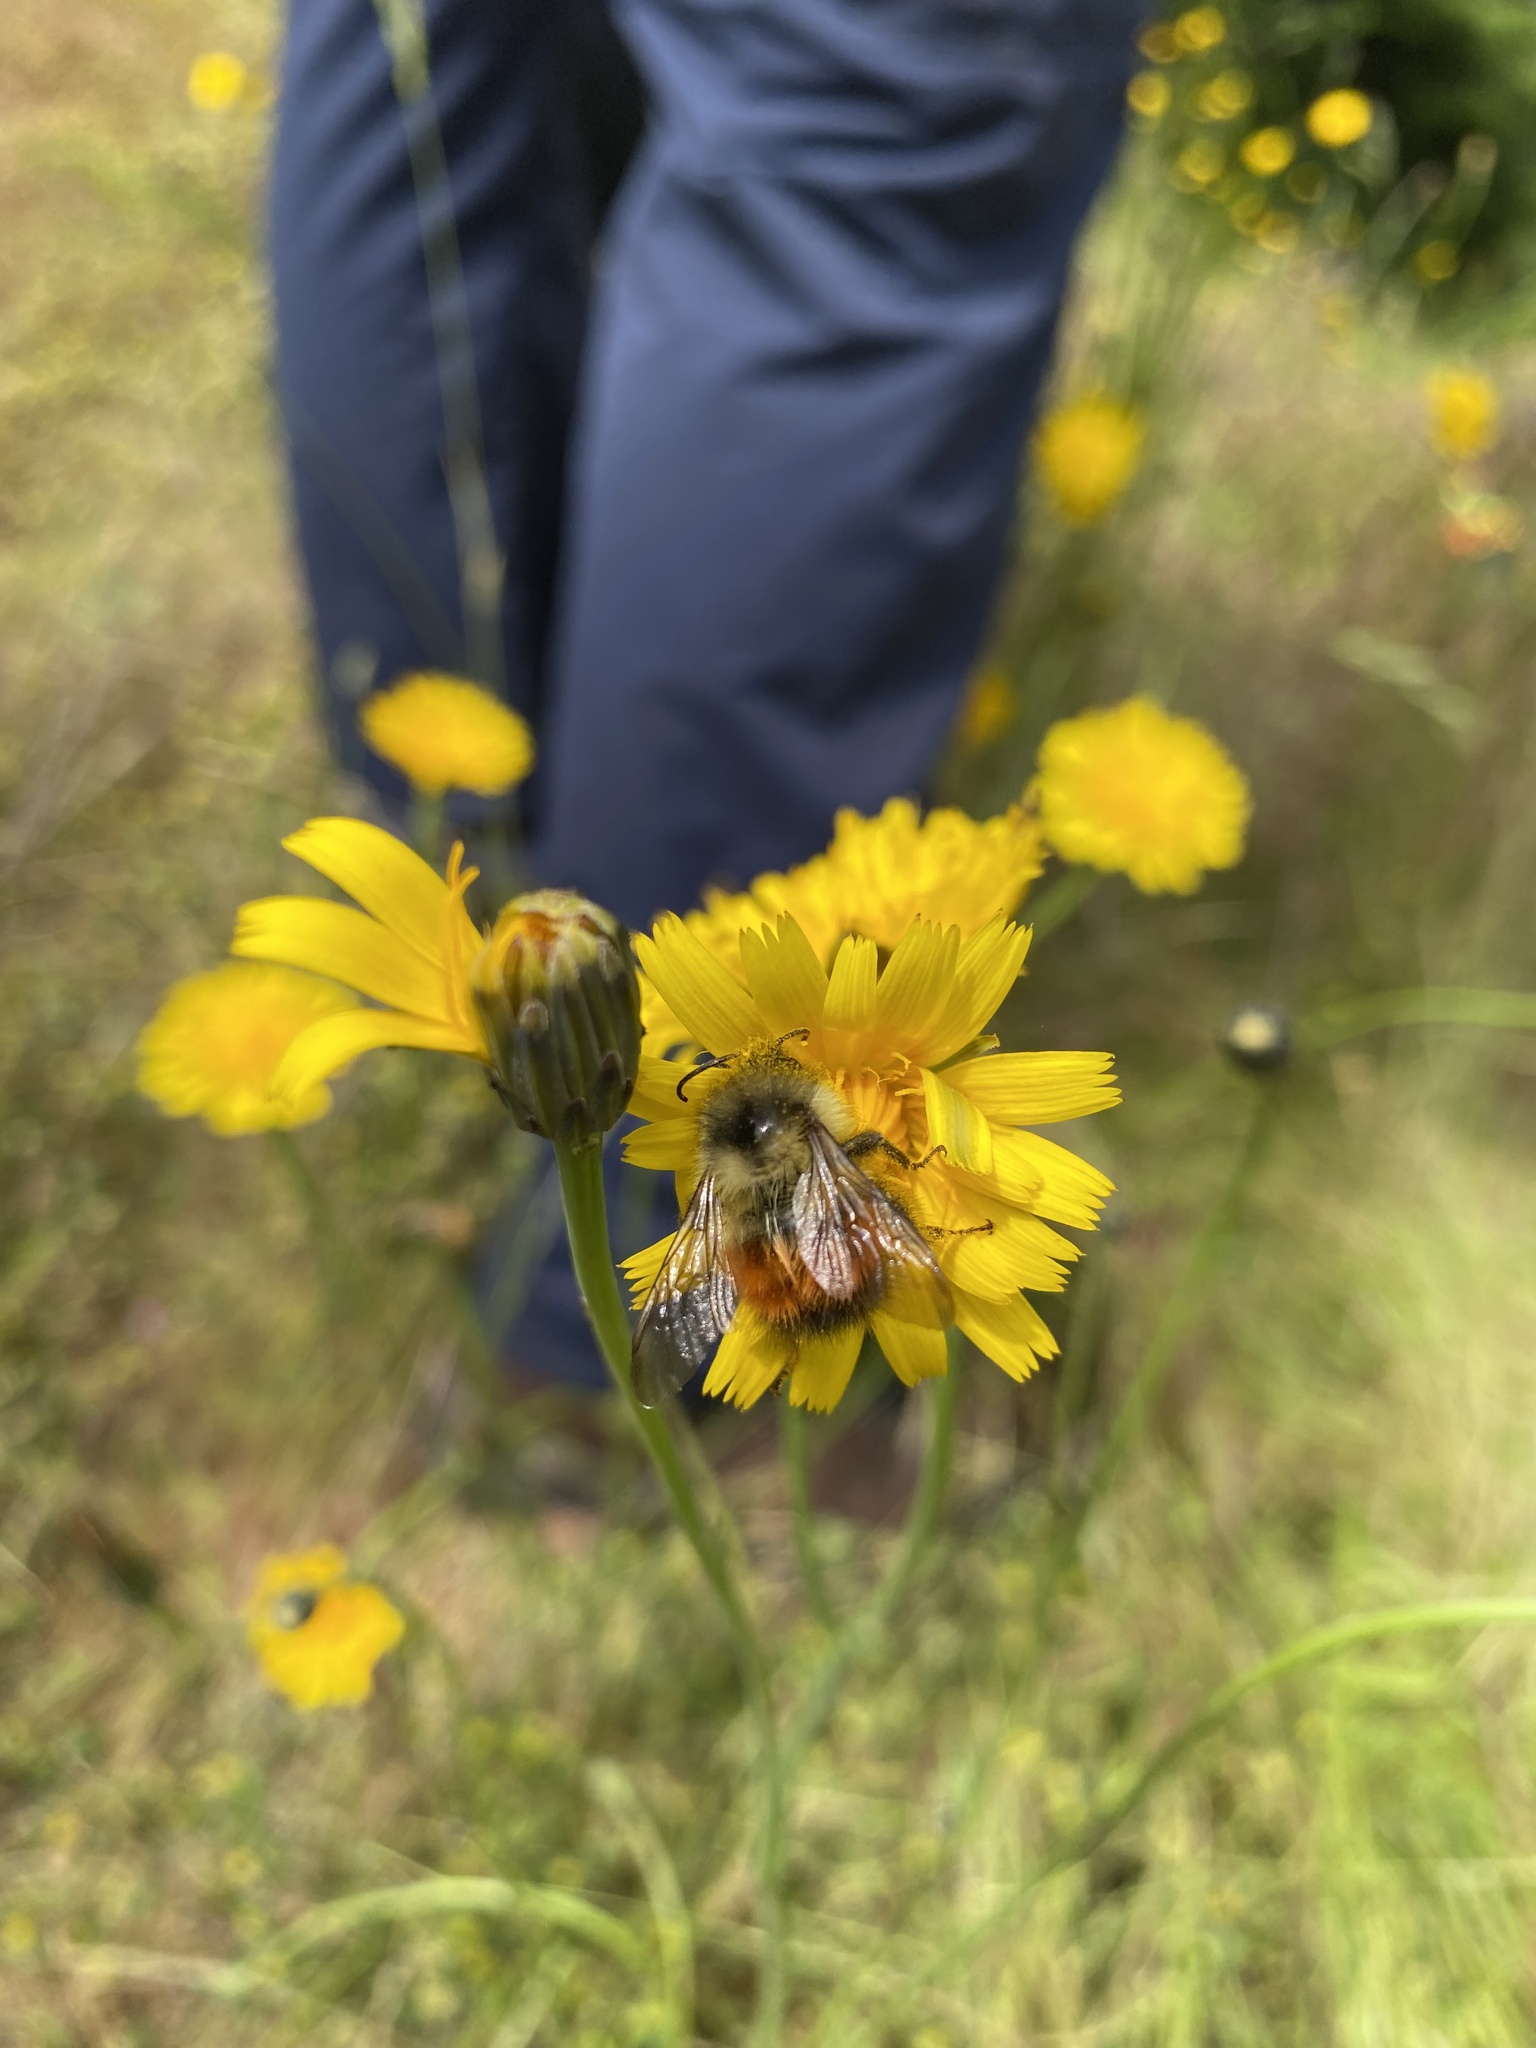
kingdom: Animalia
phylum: Arthropoda
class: Insecta
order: Hymenoptera
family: Apidae
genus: Bombus
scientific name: Bombus melanopygus
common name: Black tail bumble bee
